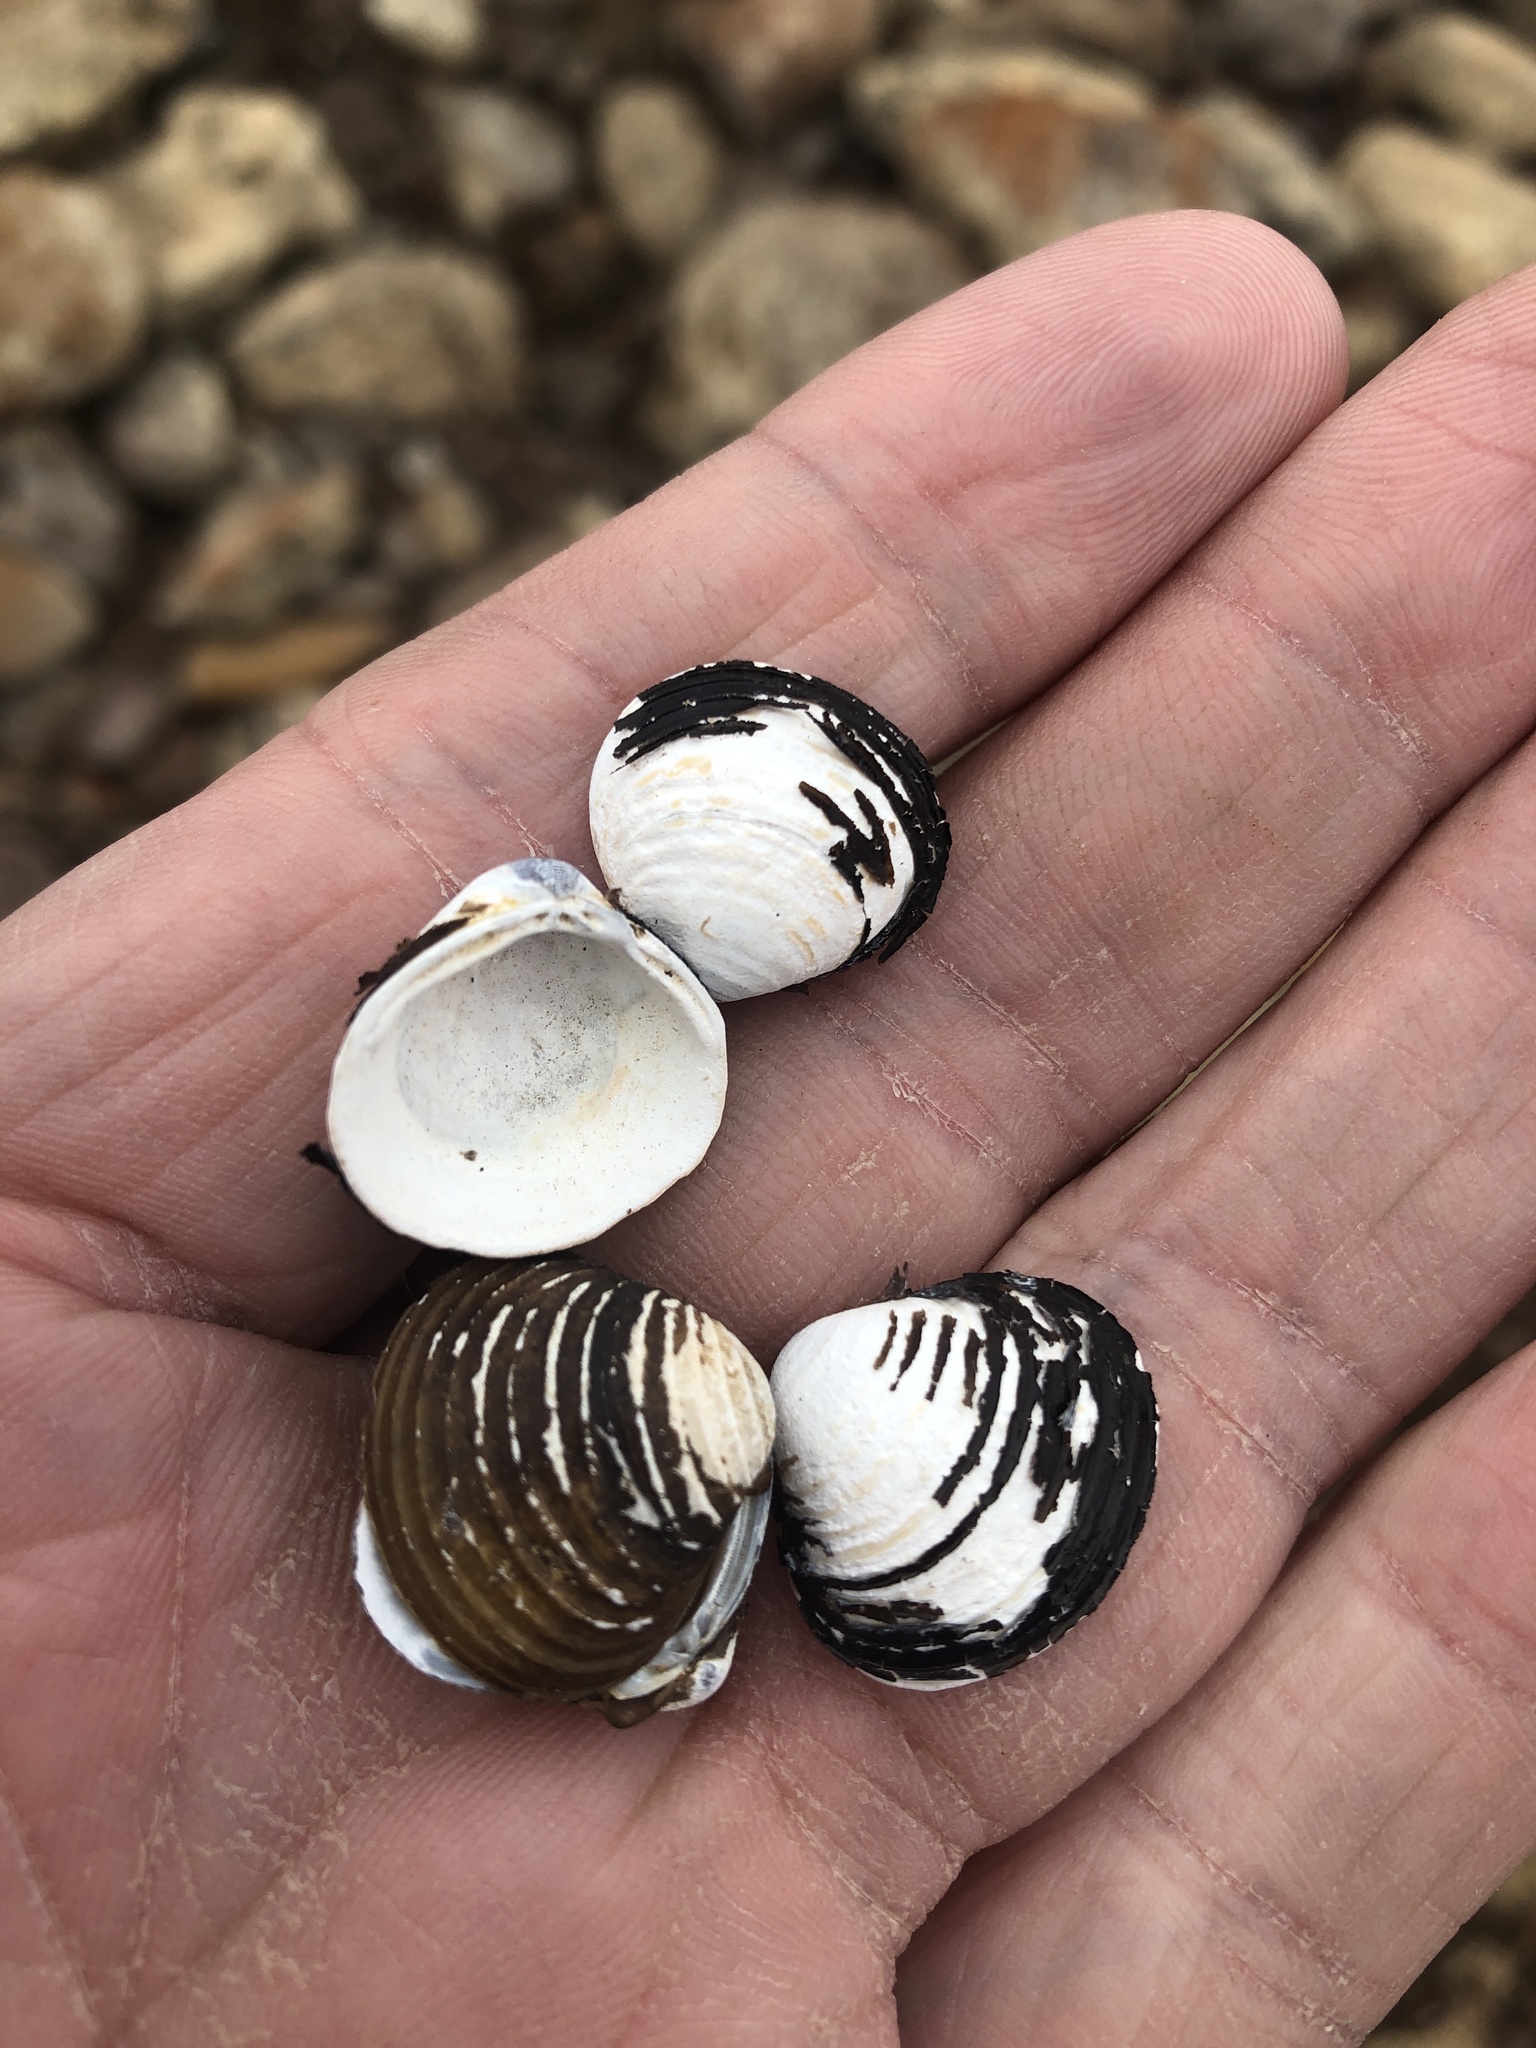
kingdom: Animalia
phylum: Mollusca
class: Bivalvia
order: Venerida
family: Cyrenidae
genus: Corbicula
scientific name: Corbicula fluminea
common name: Asian clam
